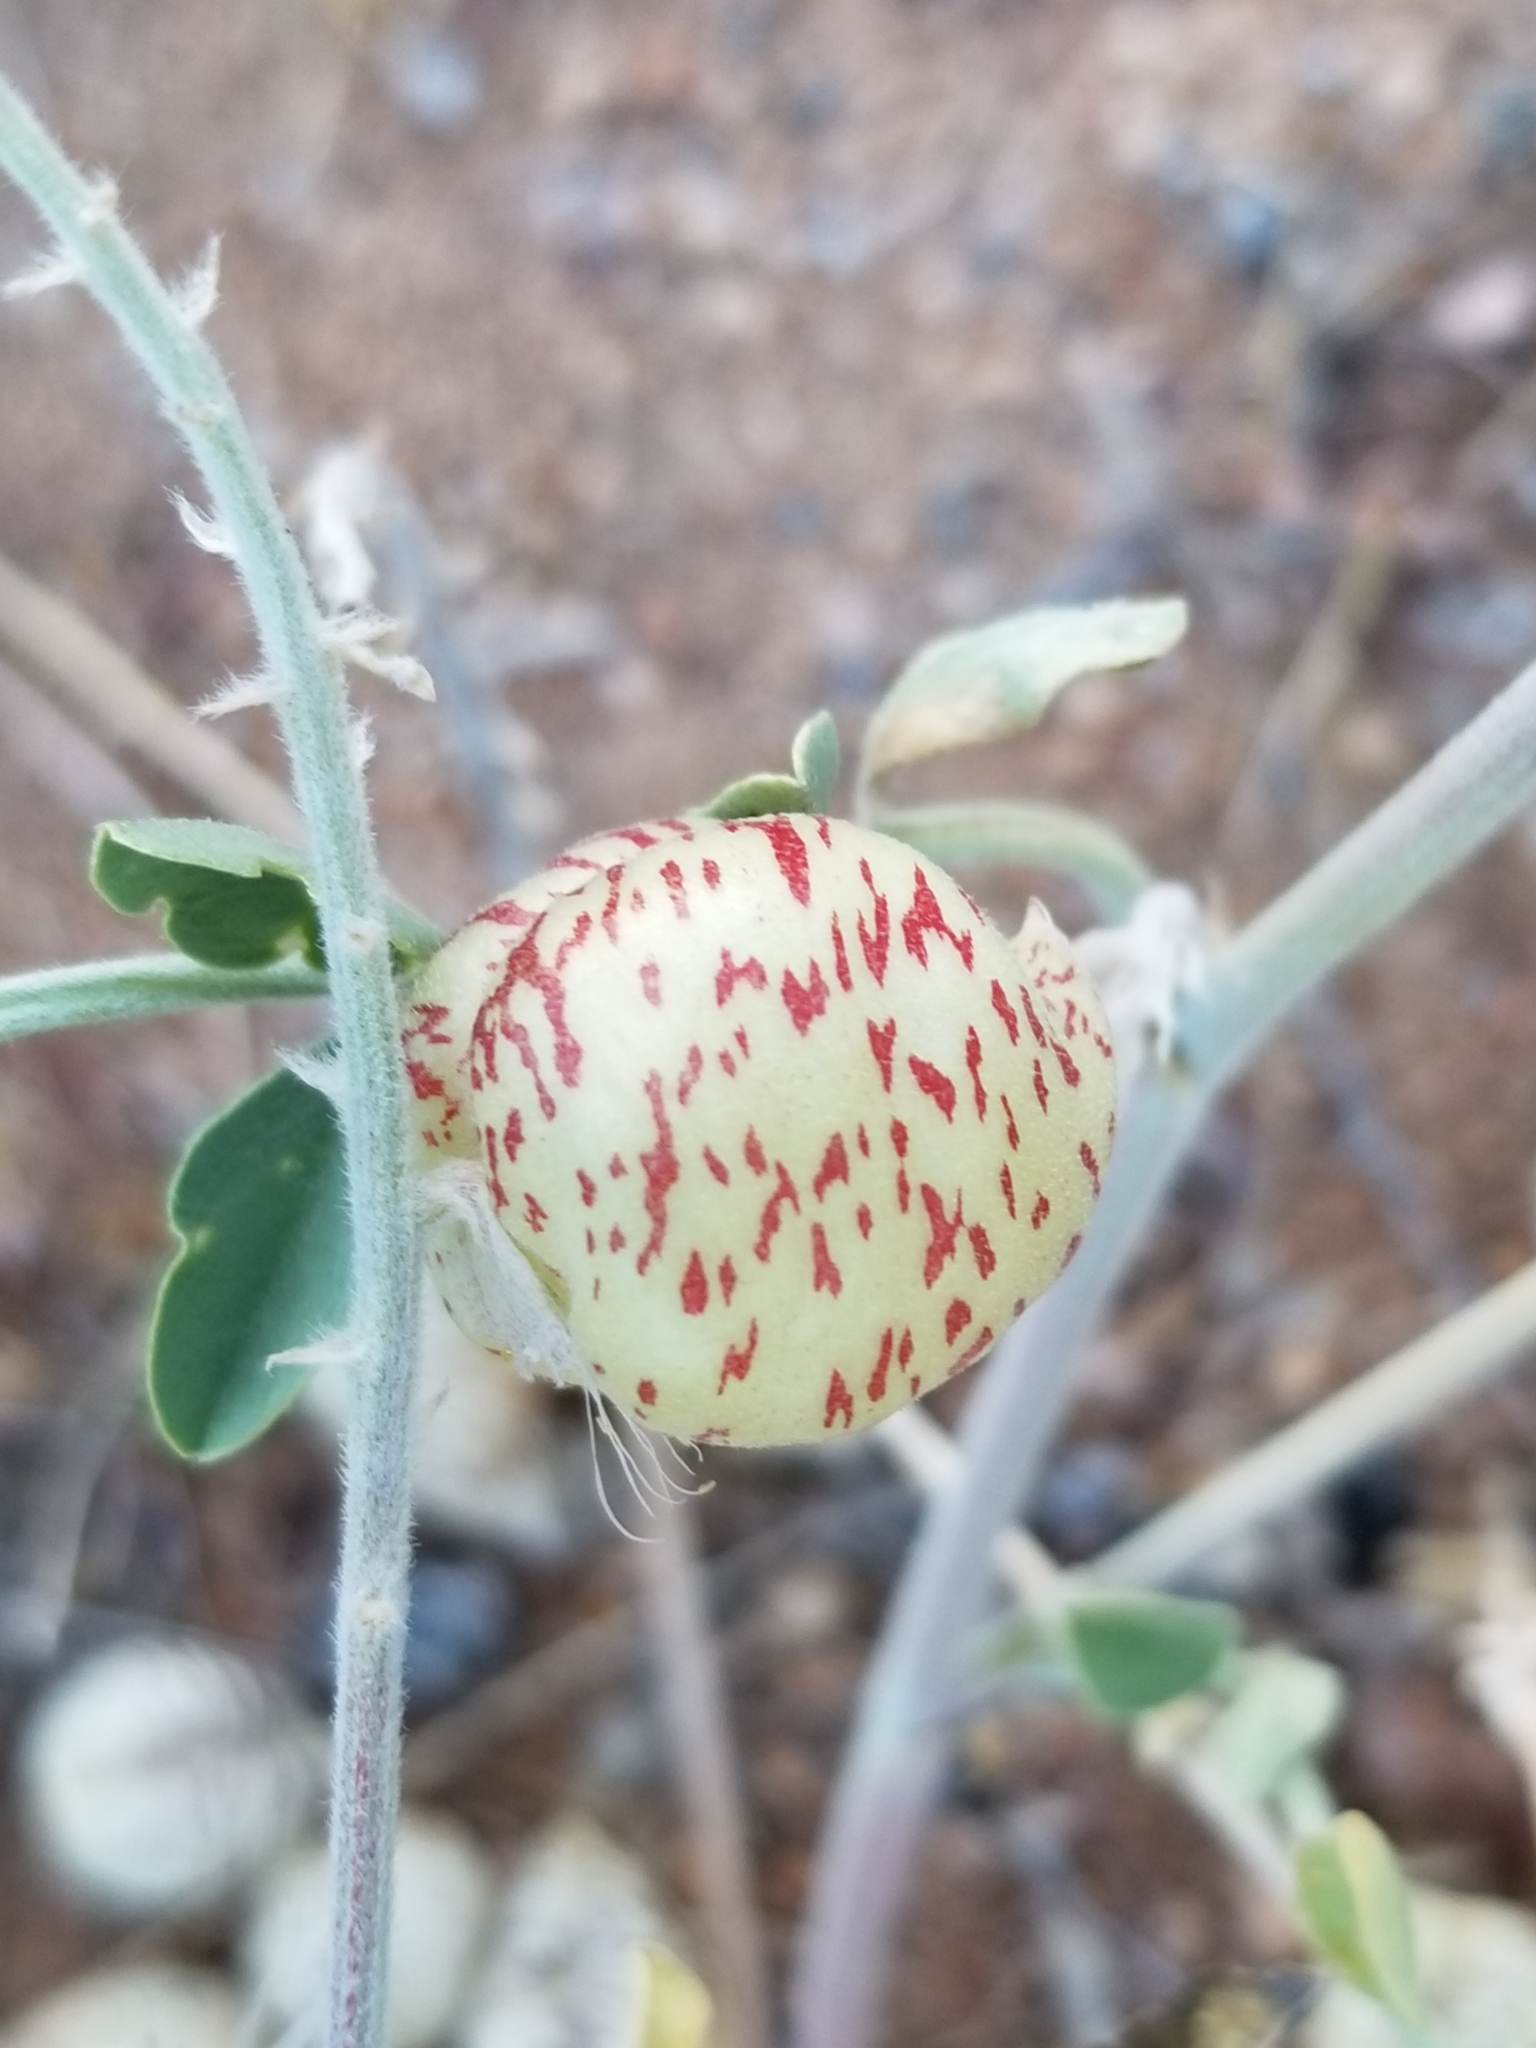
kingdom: Plantae
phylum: Tracheophyta
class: Magnoliopsida
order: Fabales
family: Fabaceae
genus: Astragalus
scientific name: Astragalus lentiginosus
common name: Freckled milkvetch
